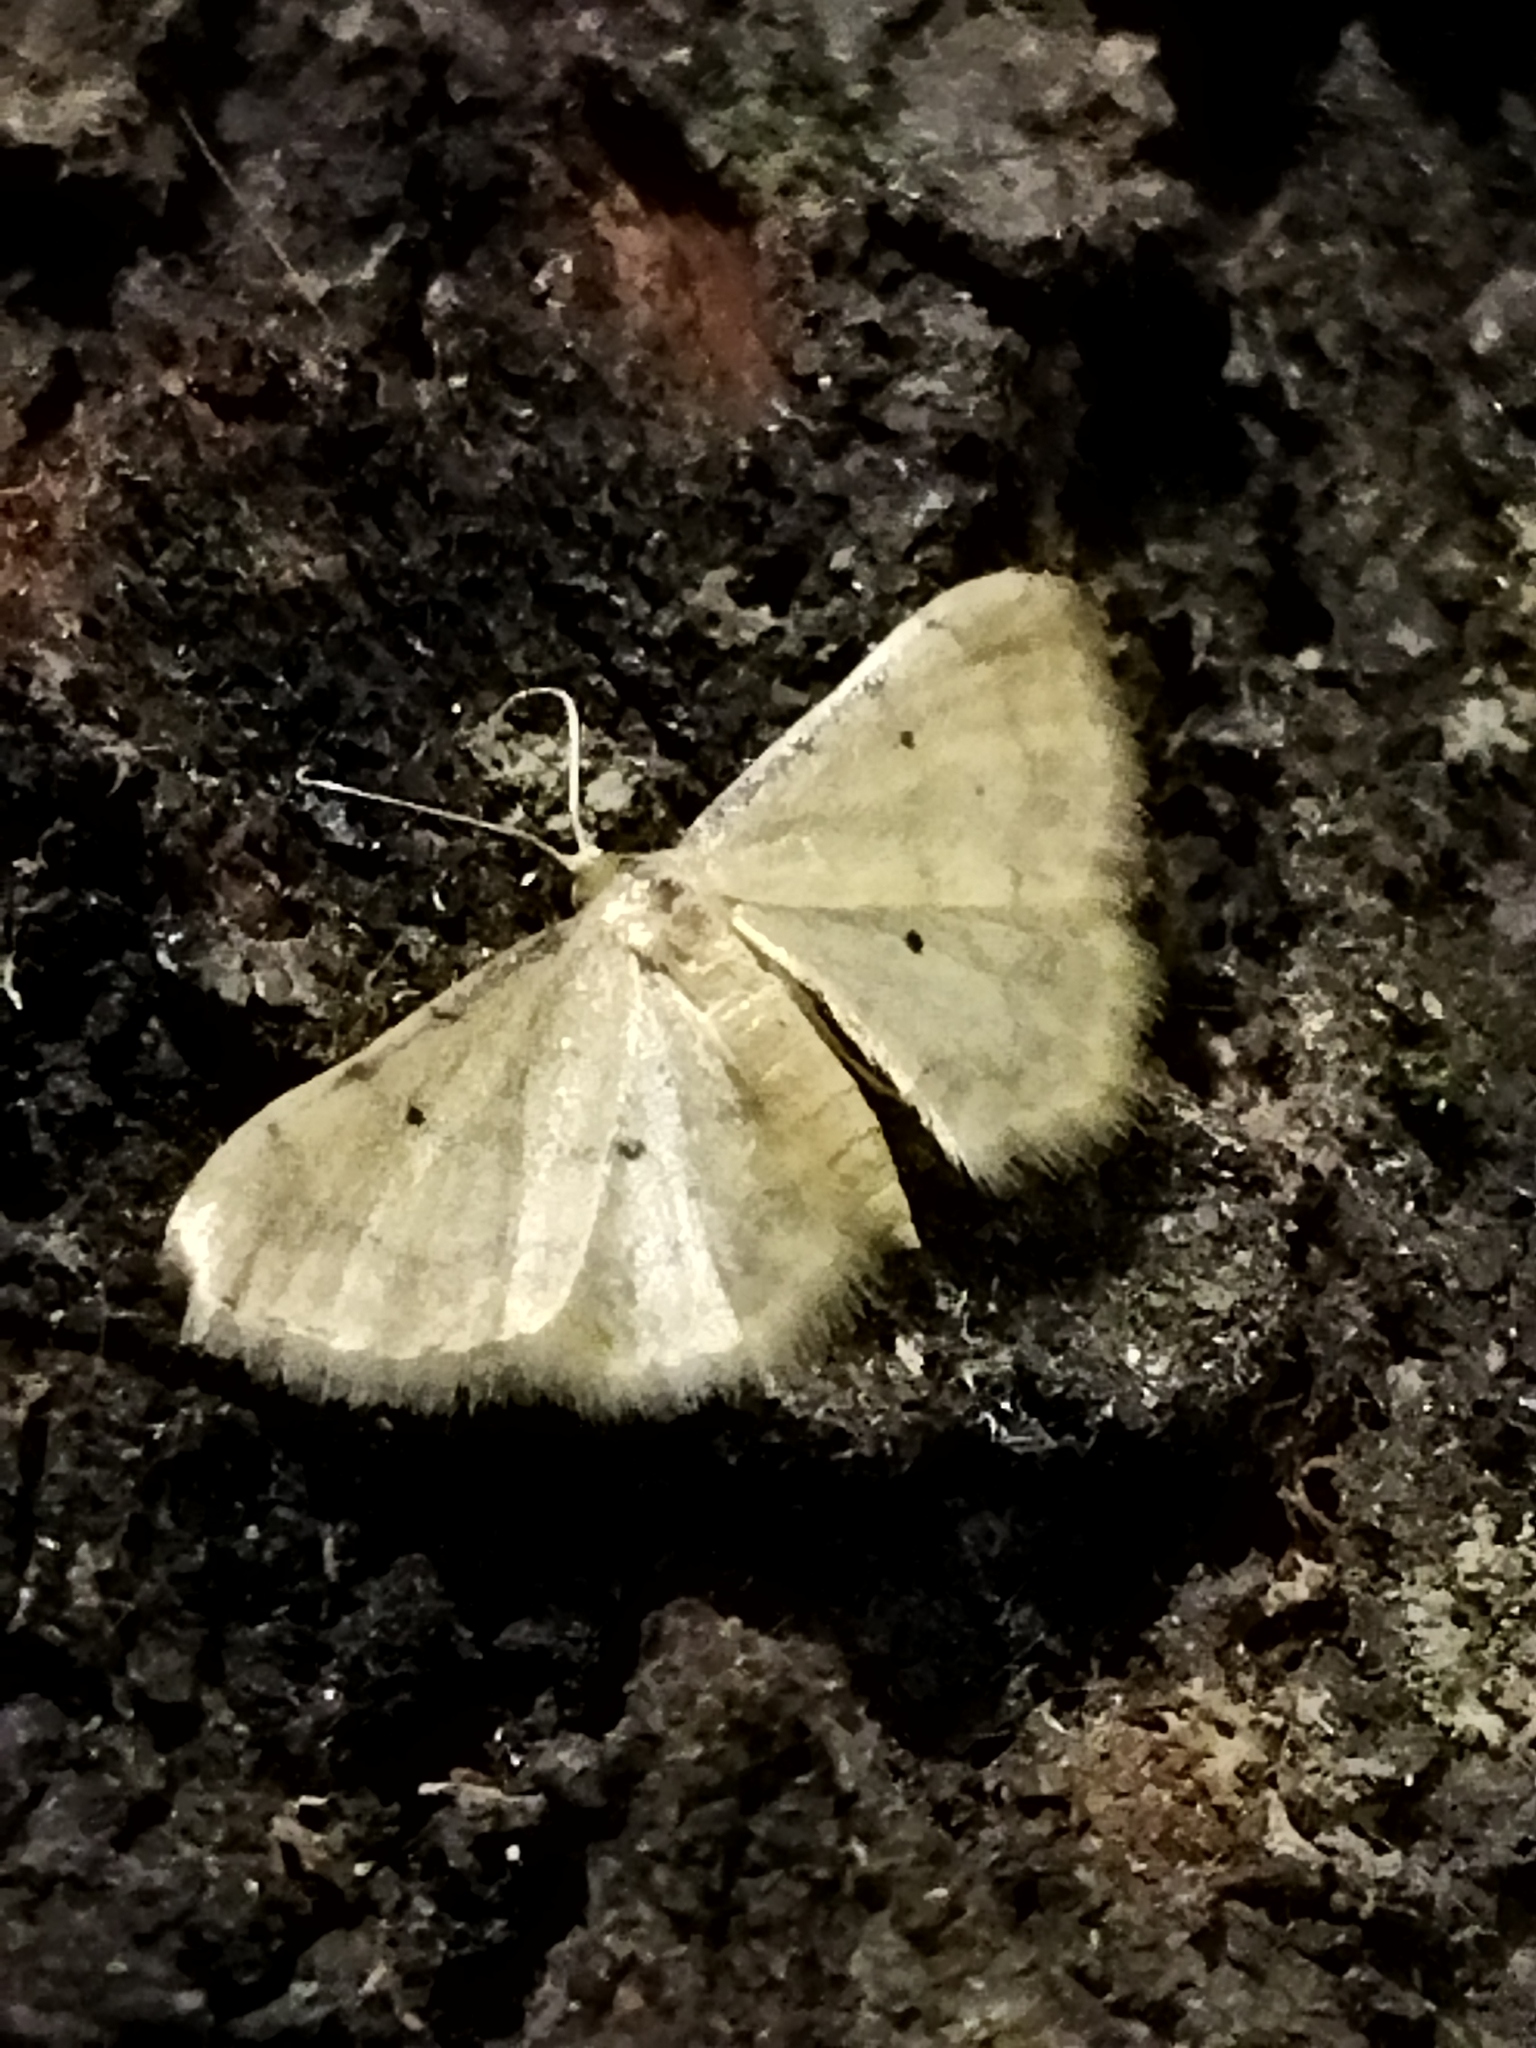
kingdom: Animalia
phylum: Arthropoda
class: Insecta
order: Lepidoptera
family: Geometridae
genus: Idaea
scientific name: Idaea politaria
